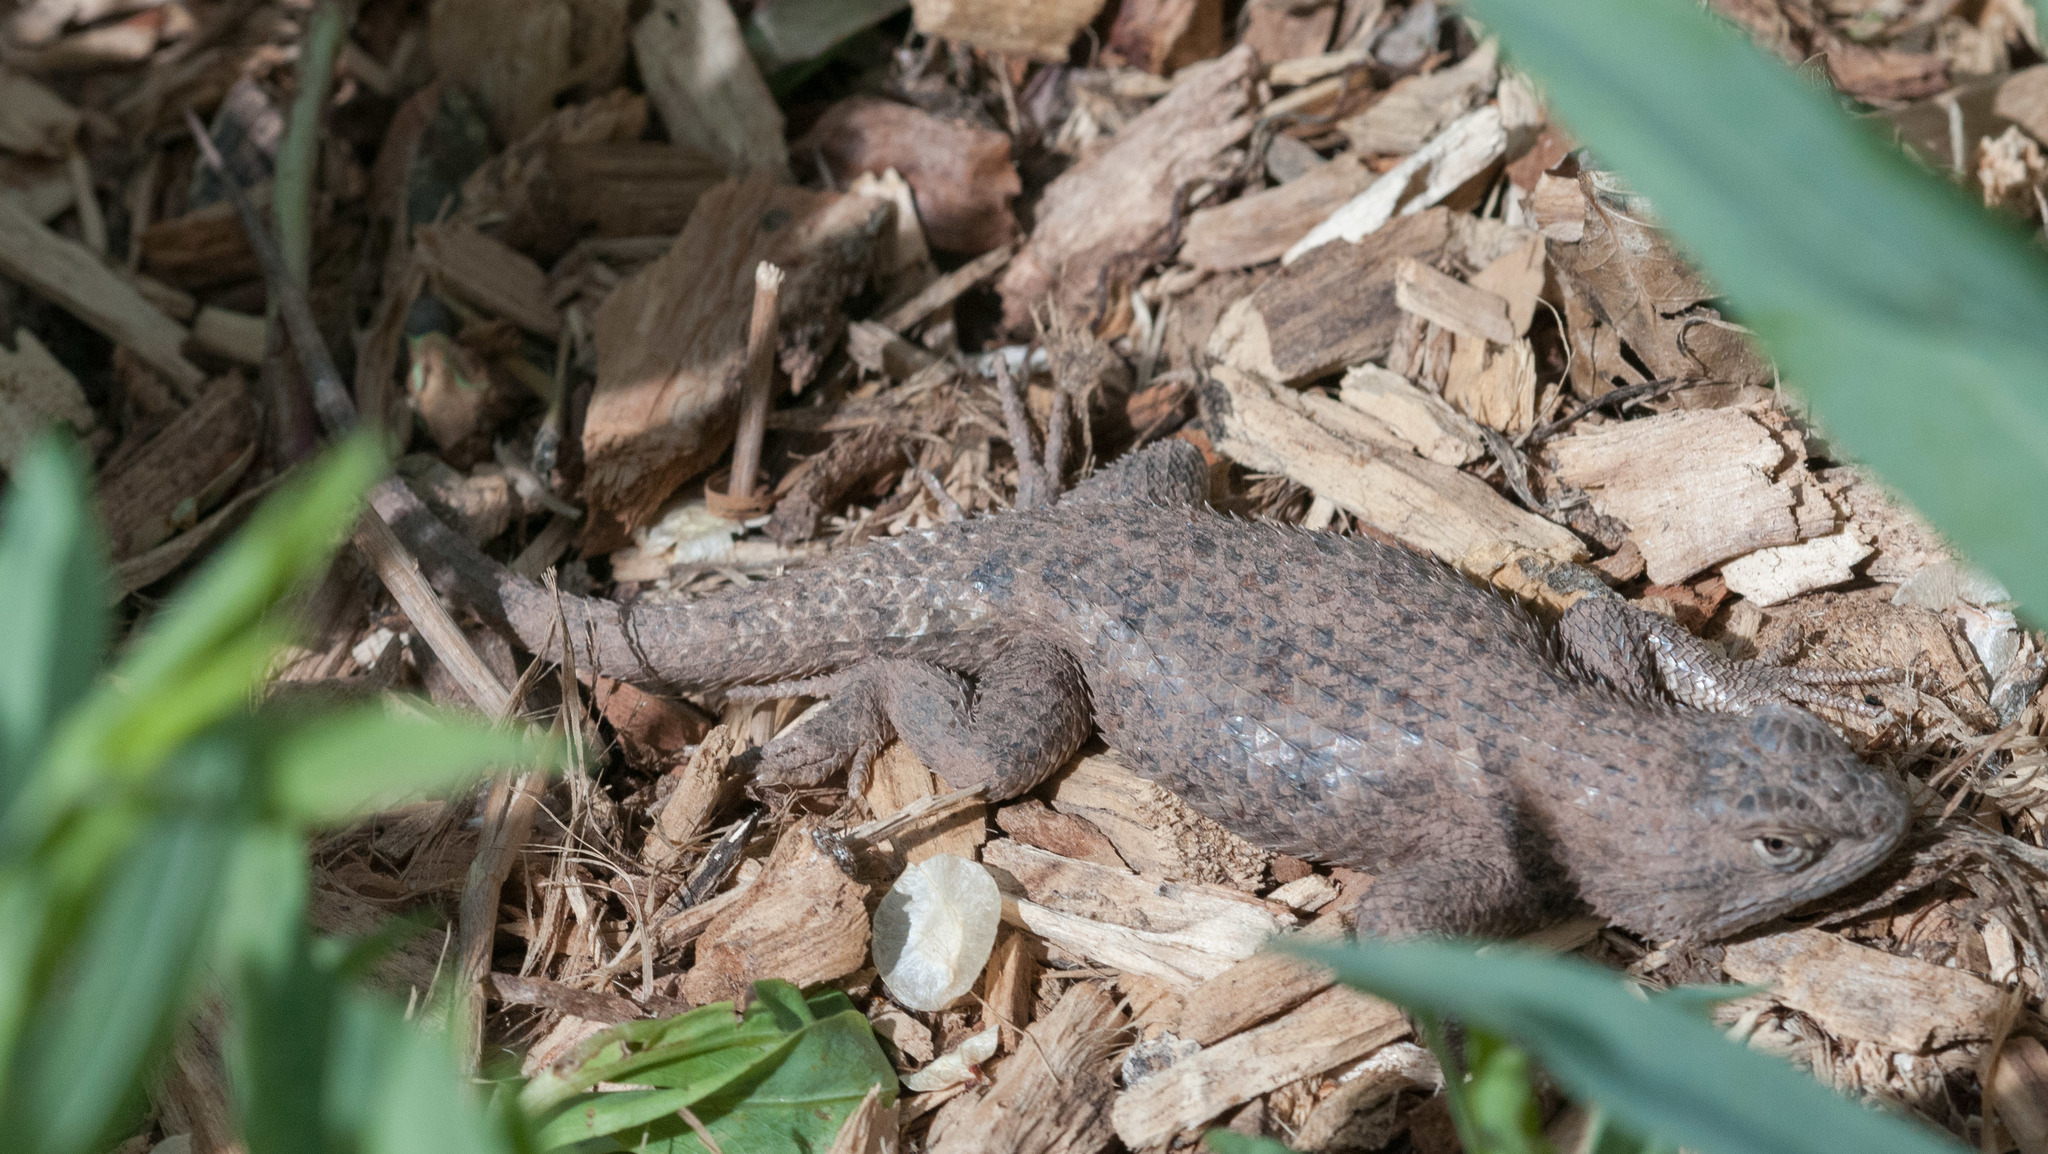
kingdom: Animalia
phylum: Chordata
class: Squamata
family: Phrynosomatidae
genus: Sceloporus
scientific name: Sceloporus uniformis
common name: Yellow-backed spiny lizard
